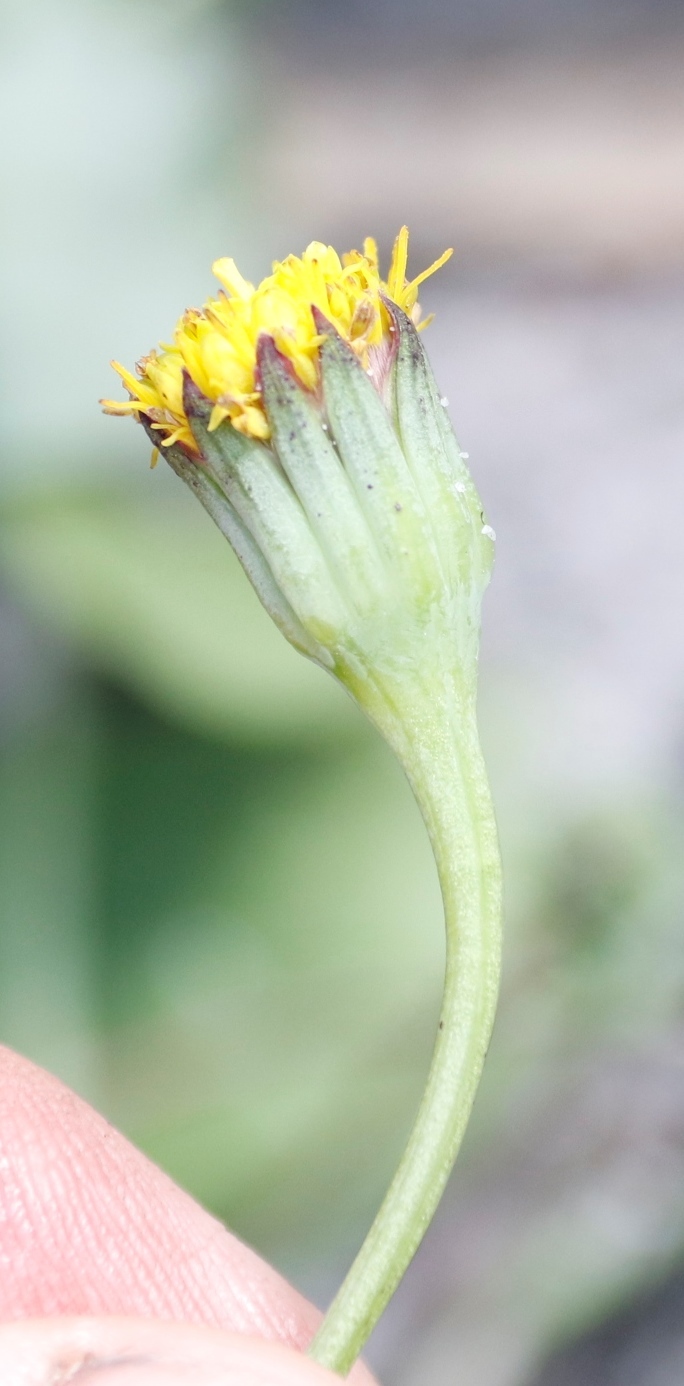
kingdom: Plantae
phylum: Tracheophyta
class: Magnoliopsida
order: Asterales
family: Asteraceae
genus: Othonna
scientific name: Othonna undulosa
